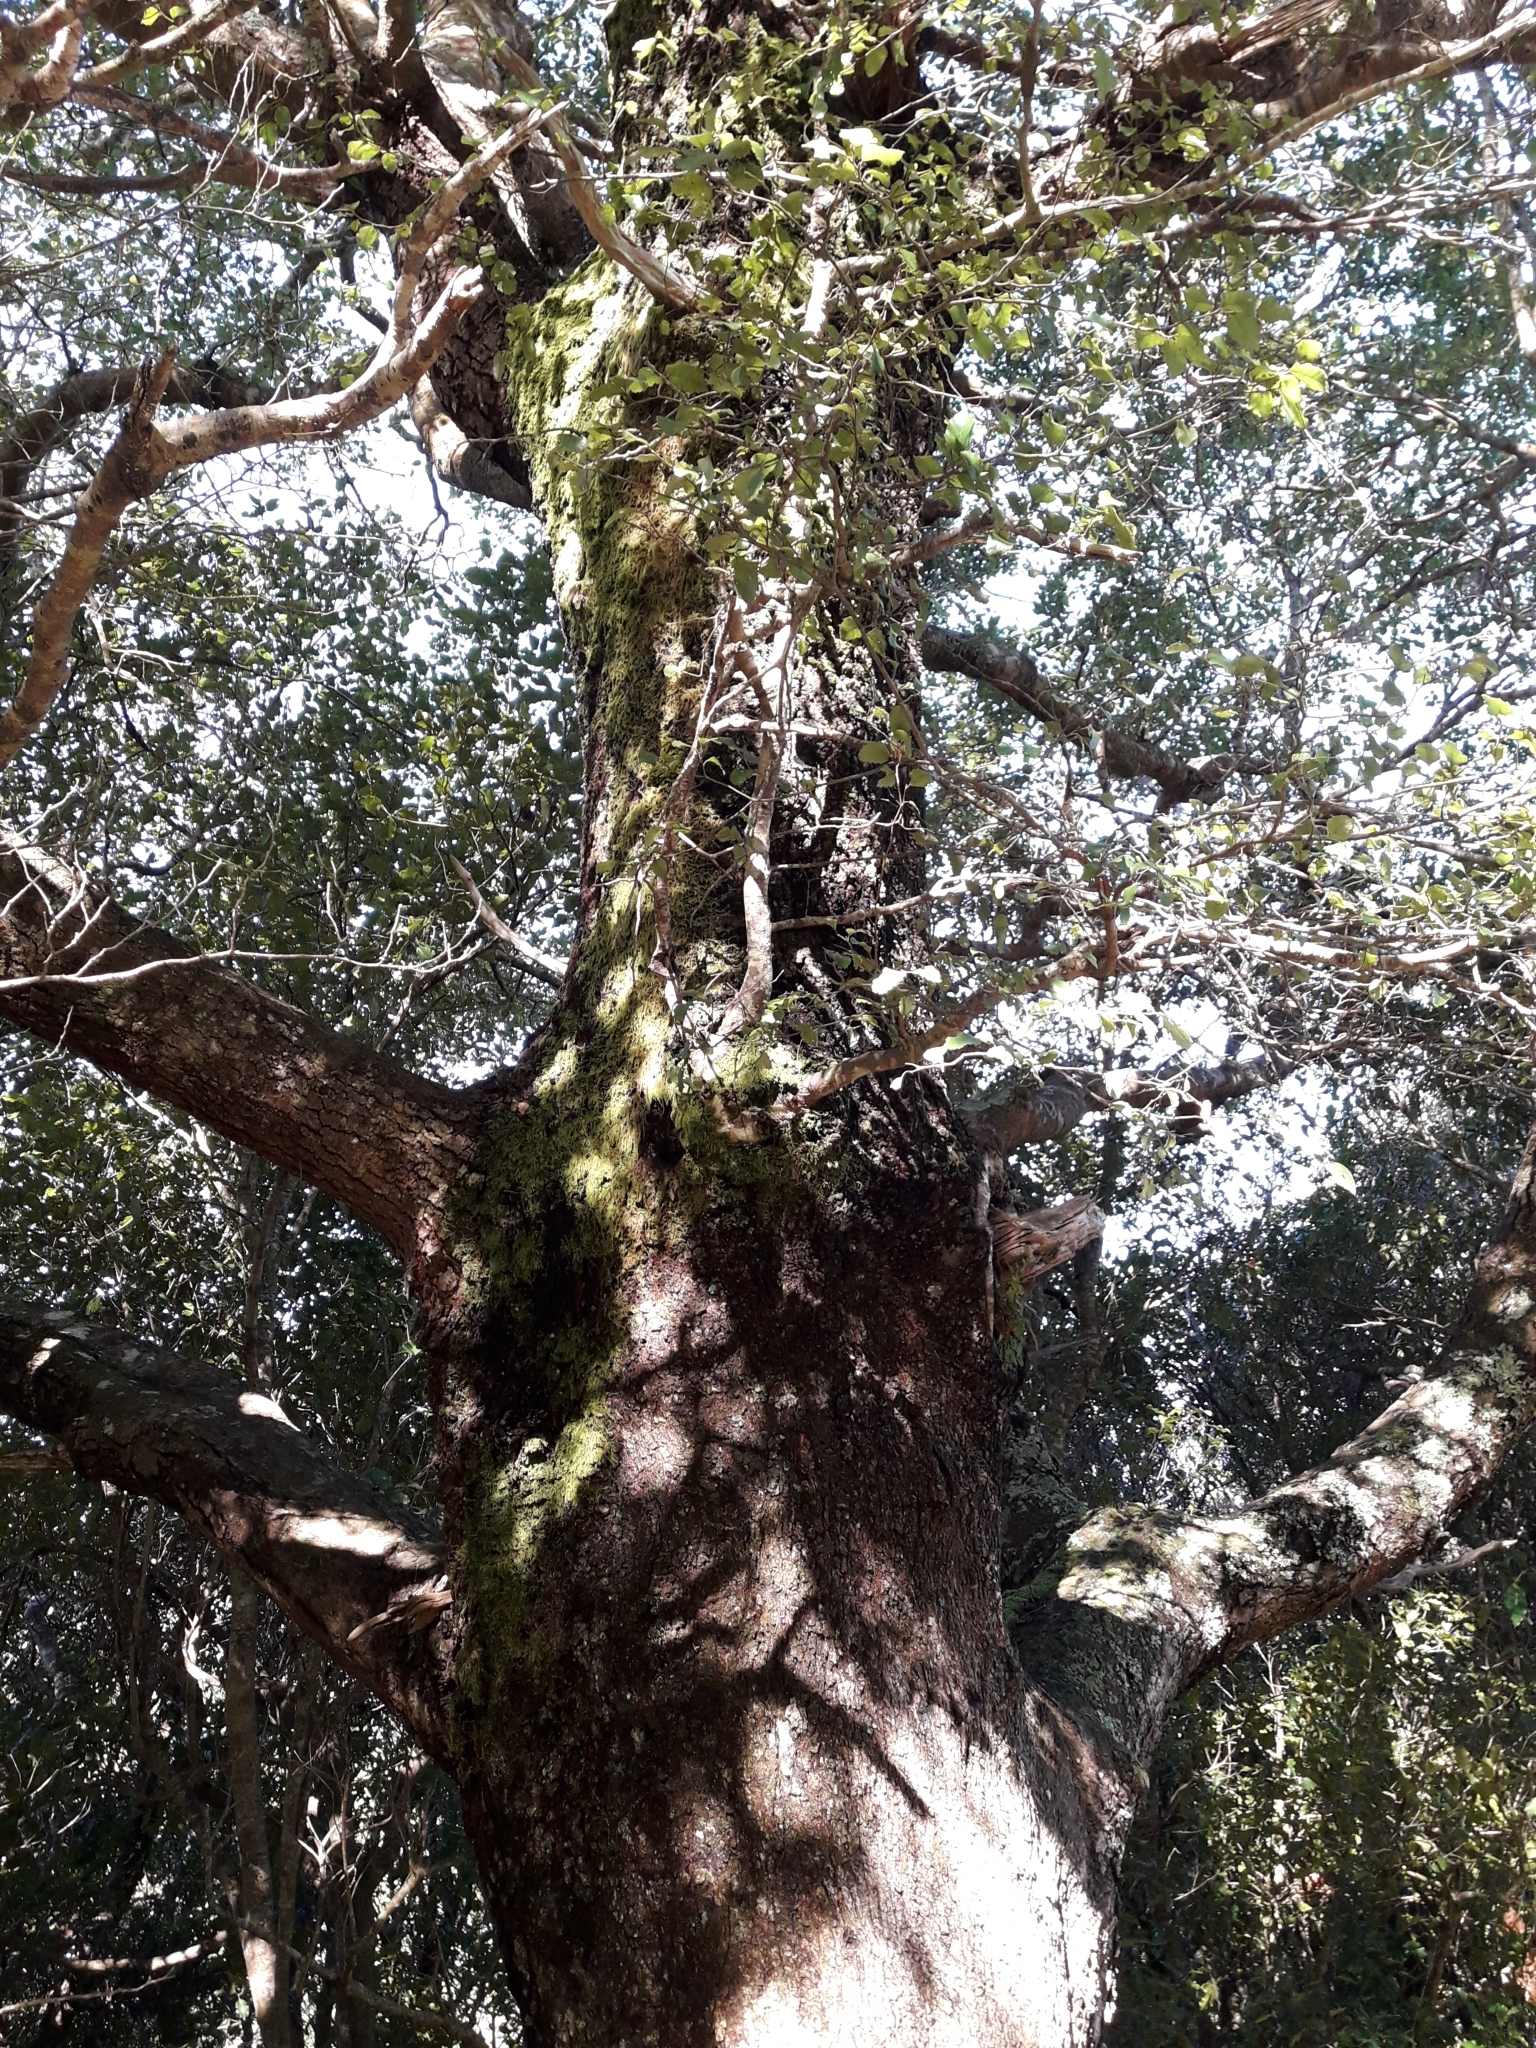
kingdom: Plantae
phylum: Tracheophyta
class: Magnoliopsida
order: Fagales
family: Nothofagaceae
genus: Nothofagus
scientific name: Nothofagus truncata
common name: Hard beech
